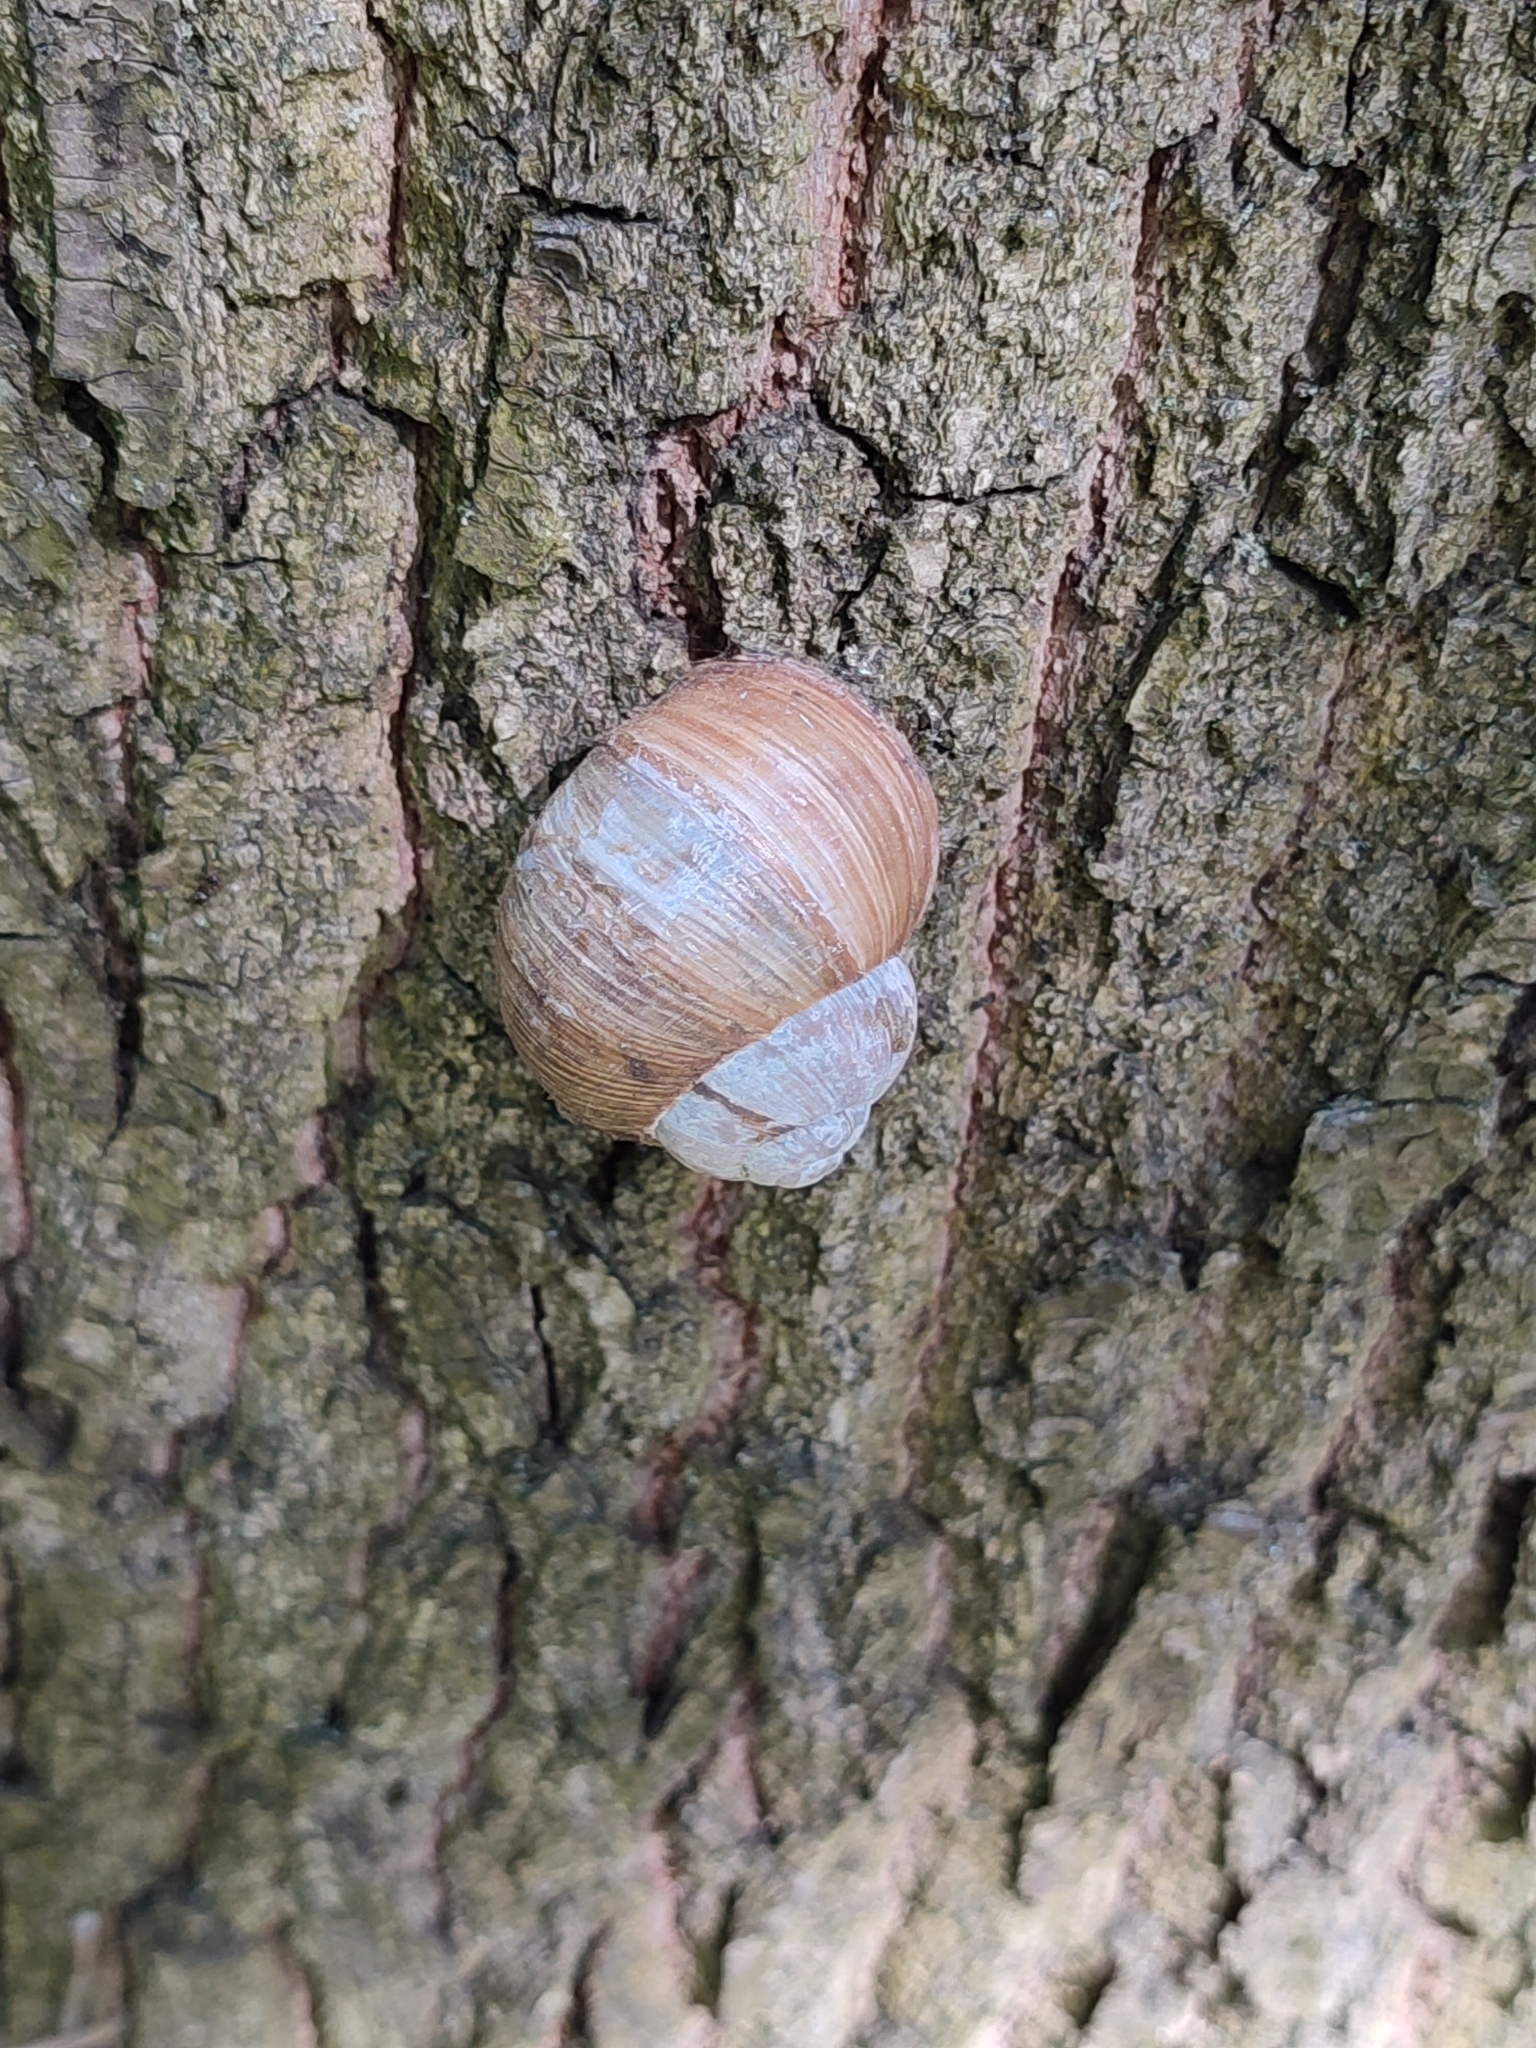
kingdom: Animalia
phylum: Mollusca
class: Gastropoda
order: Stylommatophora
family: Helicidae
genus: Helix
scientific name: Helix pomatia
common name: Roman snail
